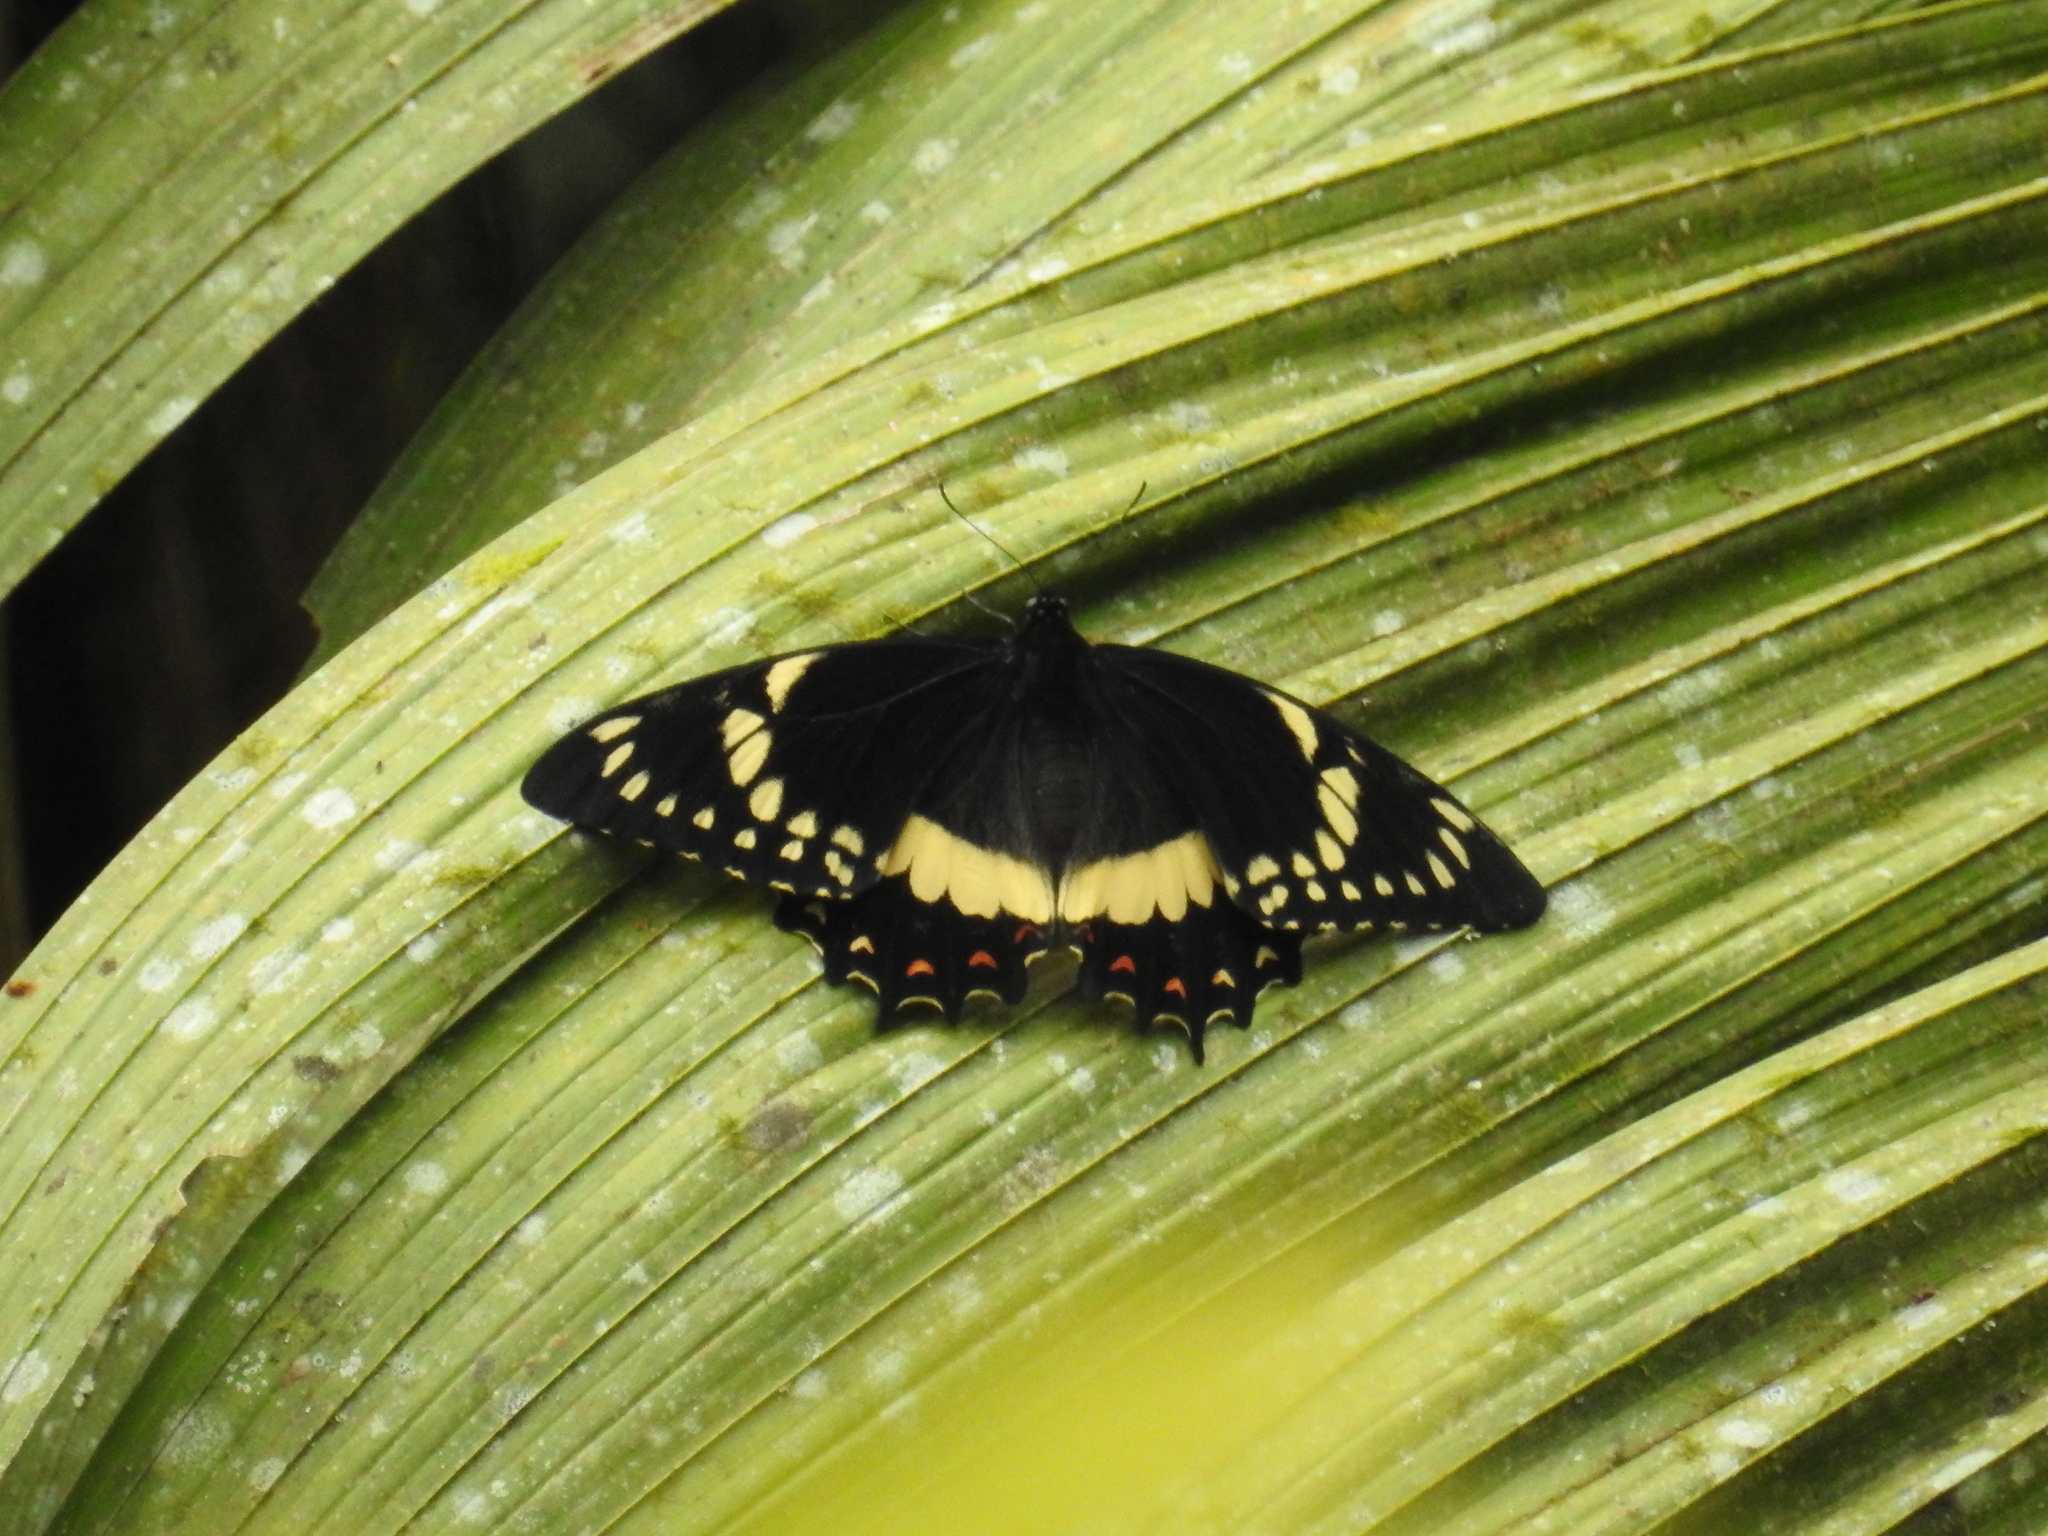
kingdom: Animalia
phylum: Arthropoda
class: Insecta
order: Lepidoptera
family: Papilionidae
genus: Papilio
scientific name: Papilio menatius
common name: Victorine swallowtail
